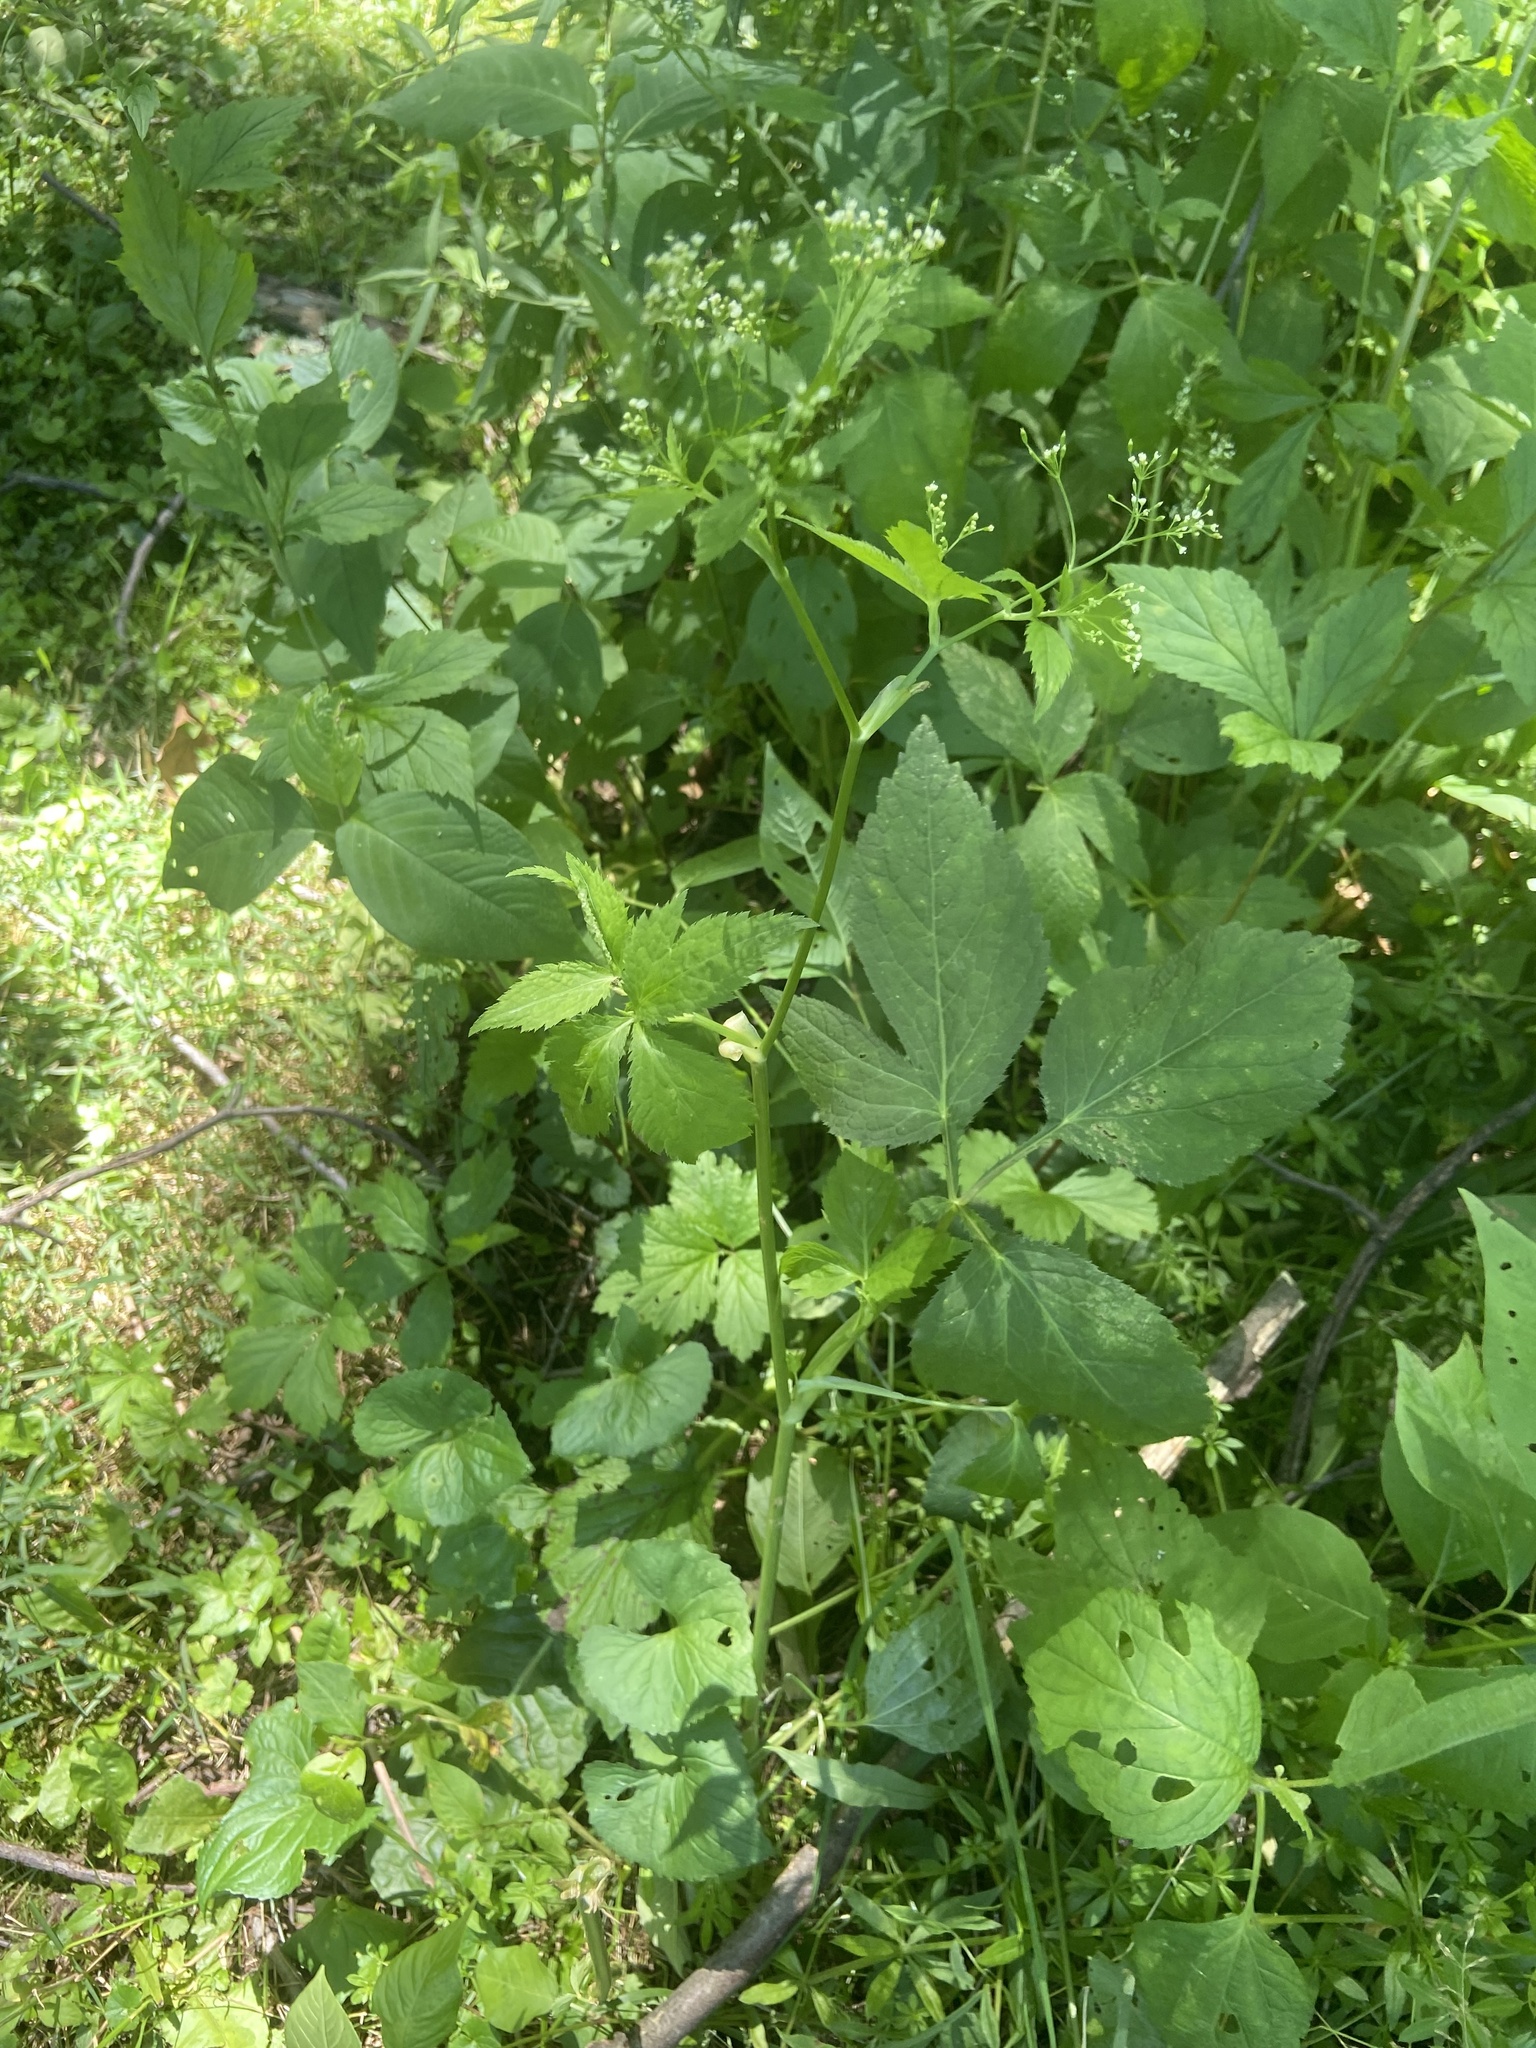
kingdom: Plantae
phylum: Tracheophyta
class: Magnoliopsida
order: Apiales
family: Apiaceae
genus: Cryptotaenia
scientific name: Cryptotaenia canadensis
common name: Honewort
